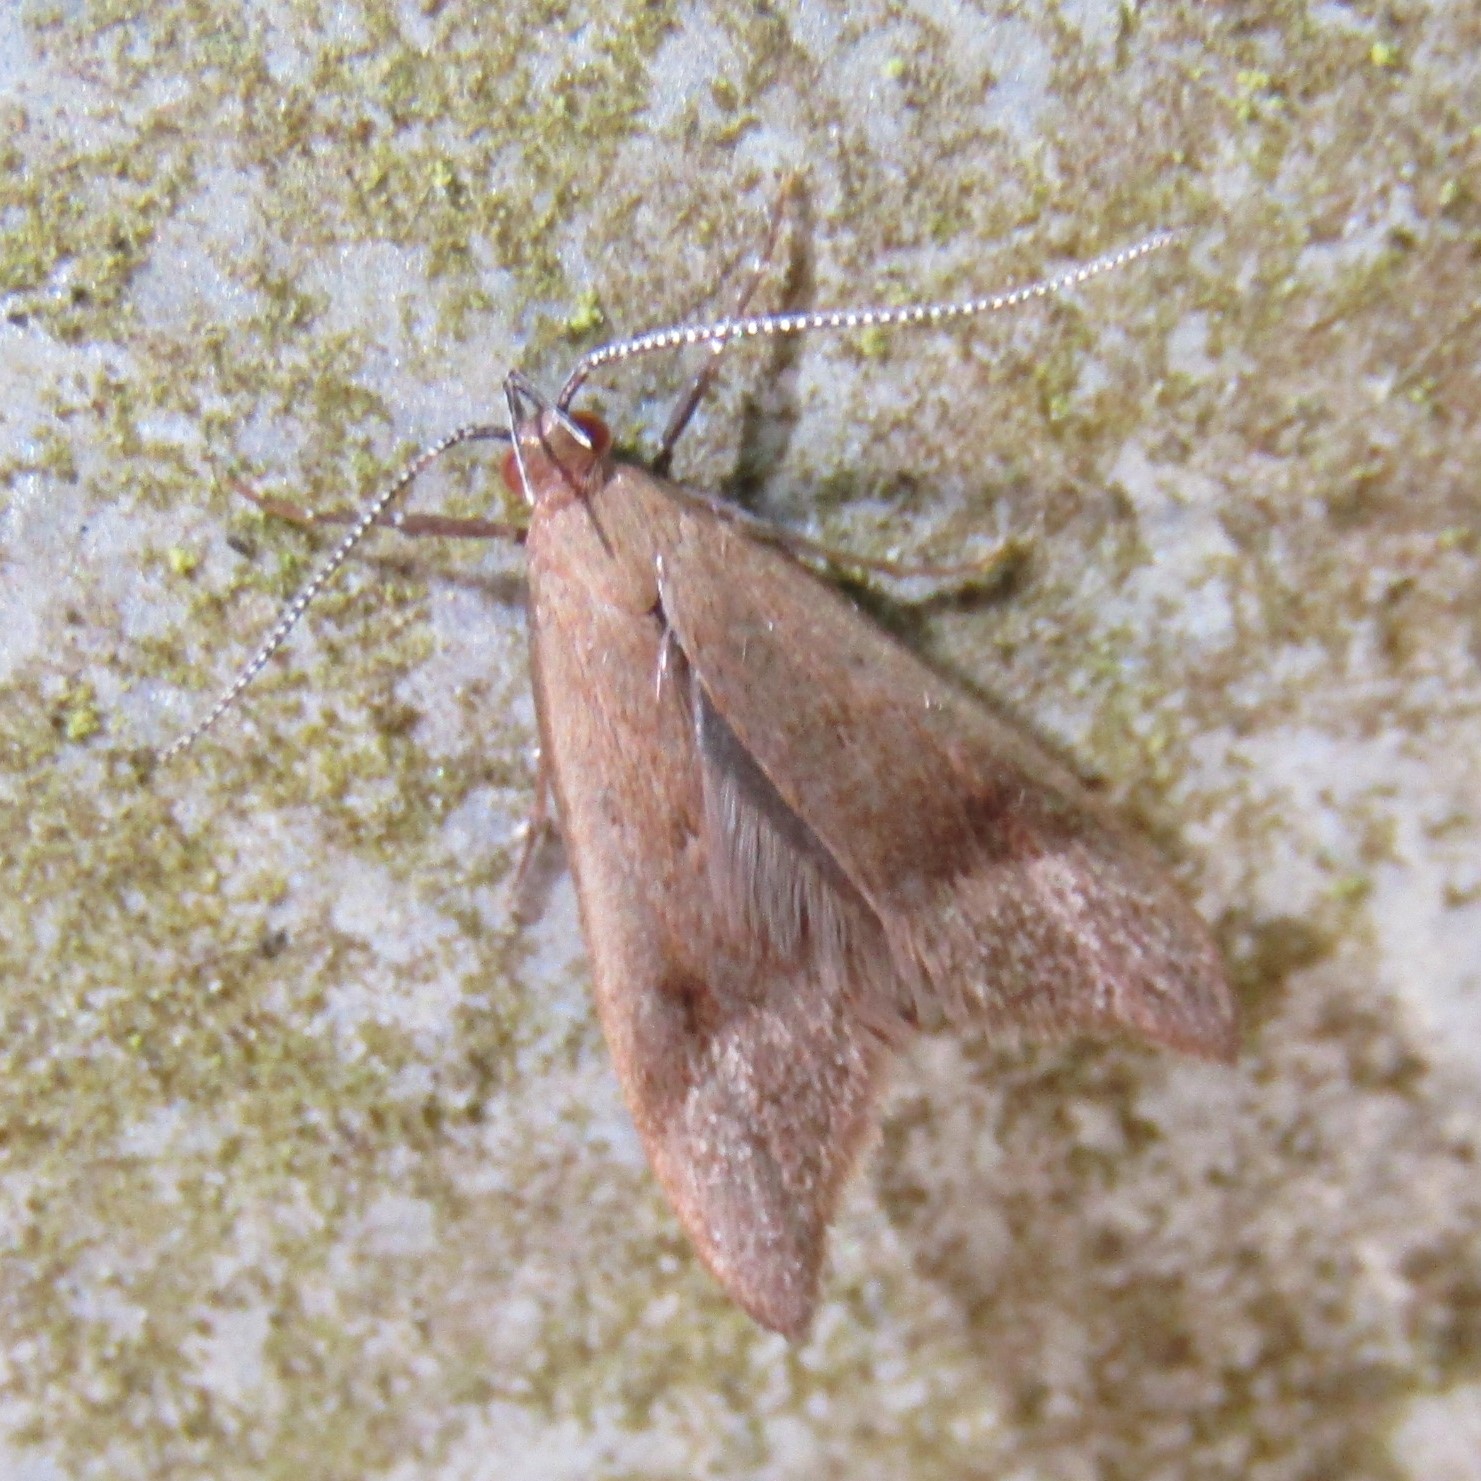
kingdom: Animalia
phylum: Arthropoda
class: Insecta
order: Lepidoptera
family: Oecophoridae
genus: Gymnobathra
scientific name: Gymnobathra hyetodes
